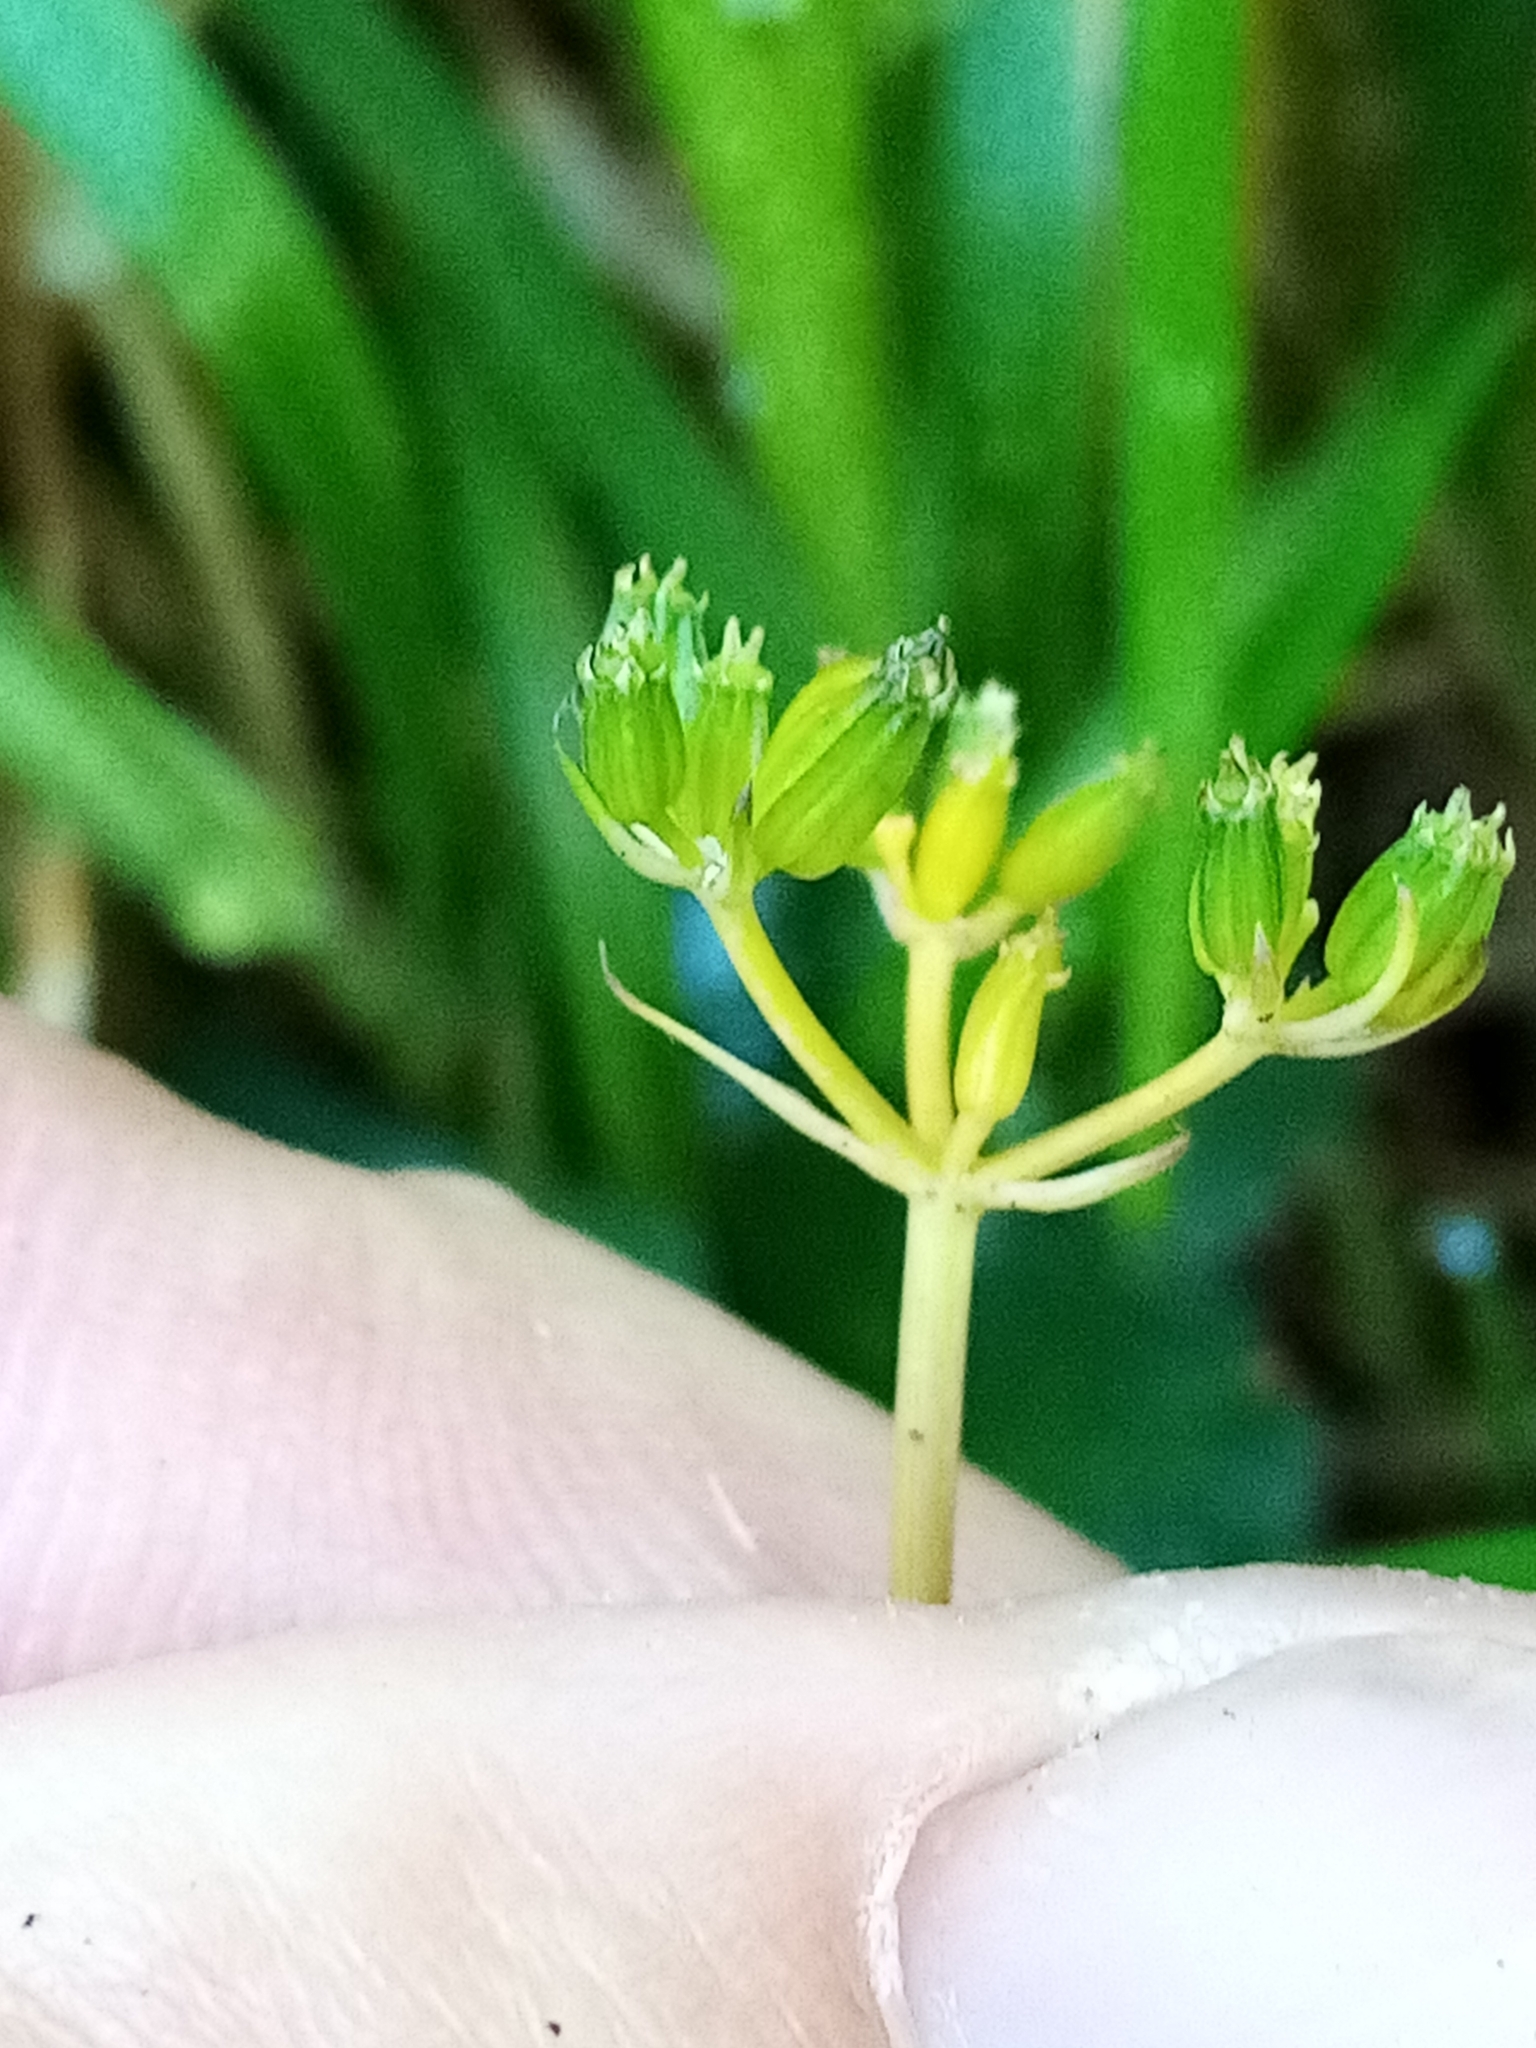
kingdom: Plantae
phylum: Tracheophyta
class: Magnoliopsida
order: Apiales
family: Apiaceae
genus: Anisotome
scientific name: Anisotome aromatica
